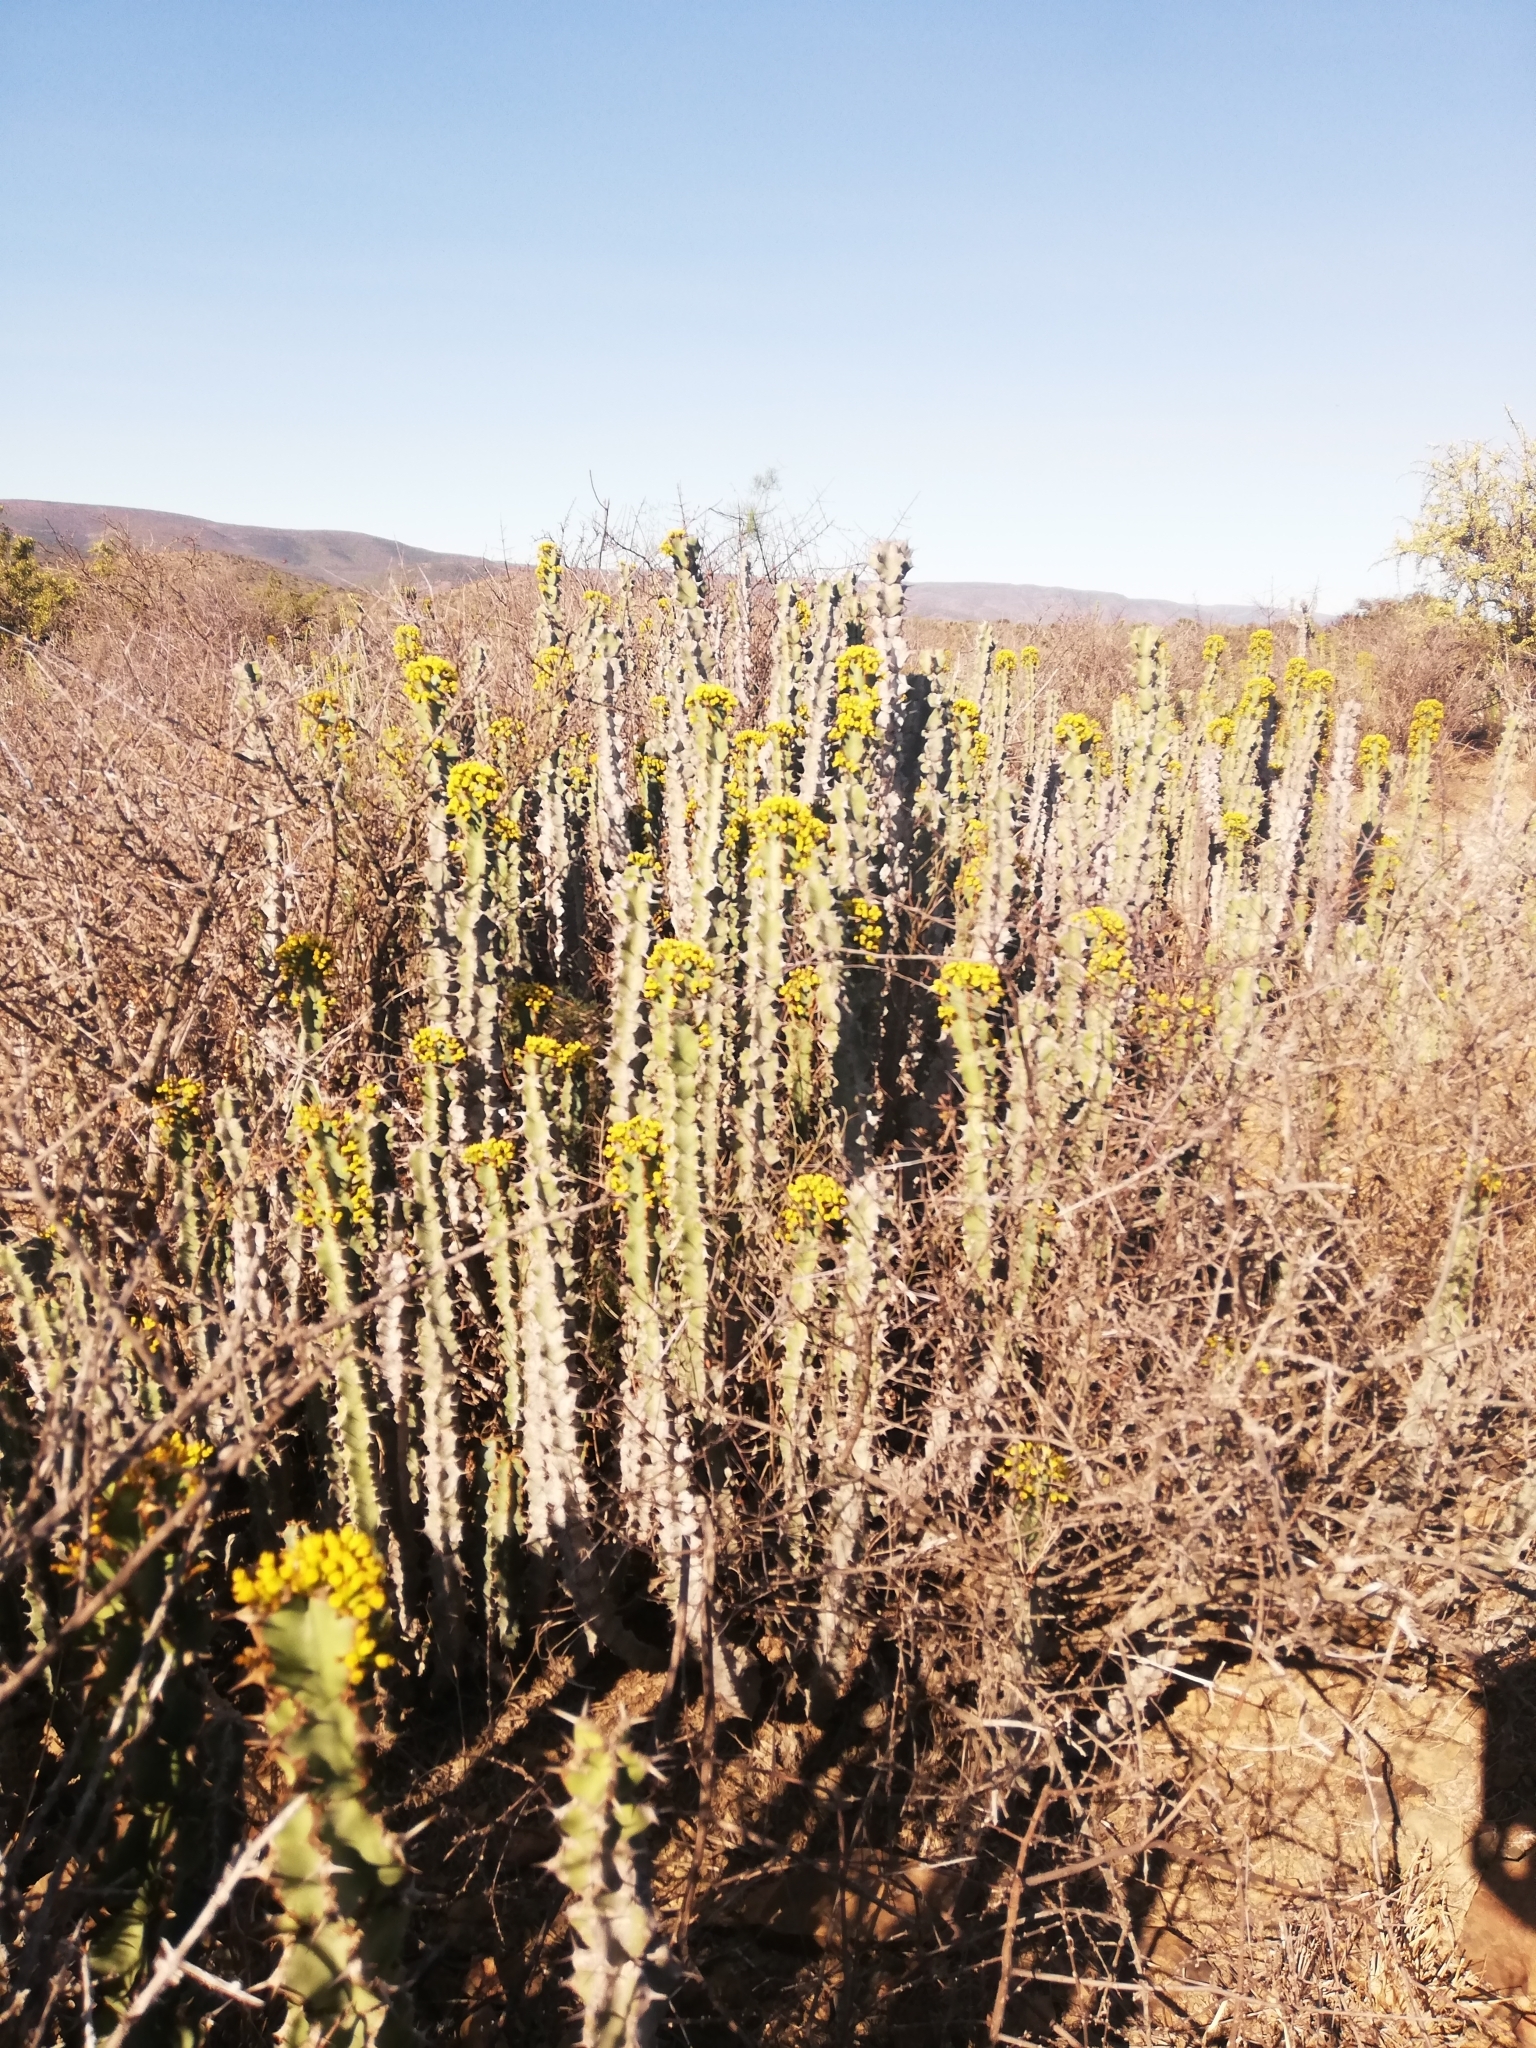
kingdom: Plantae
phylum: Tracheophyta
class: Magnoliopsida
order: Malpighiales
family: Euphorbiaceae
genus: Euphorbia
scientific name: Euphorbia radyeri
